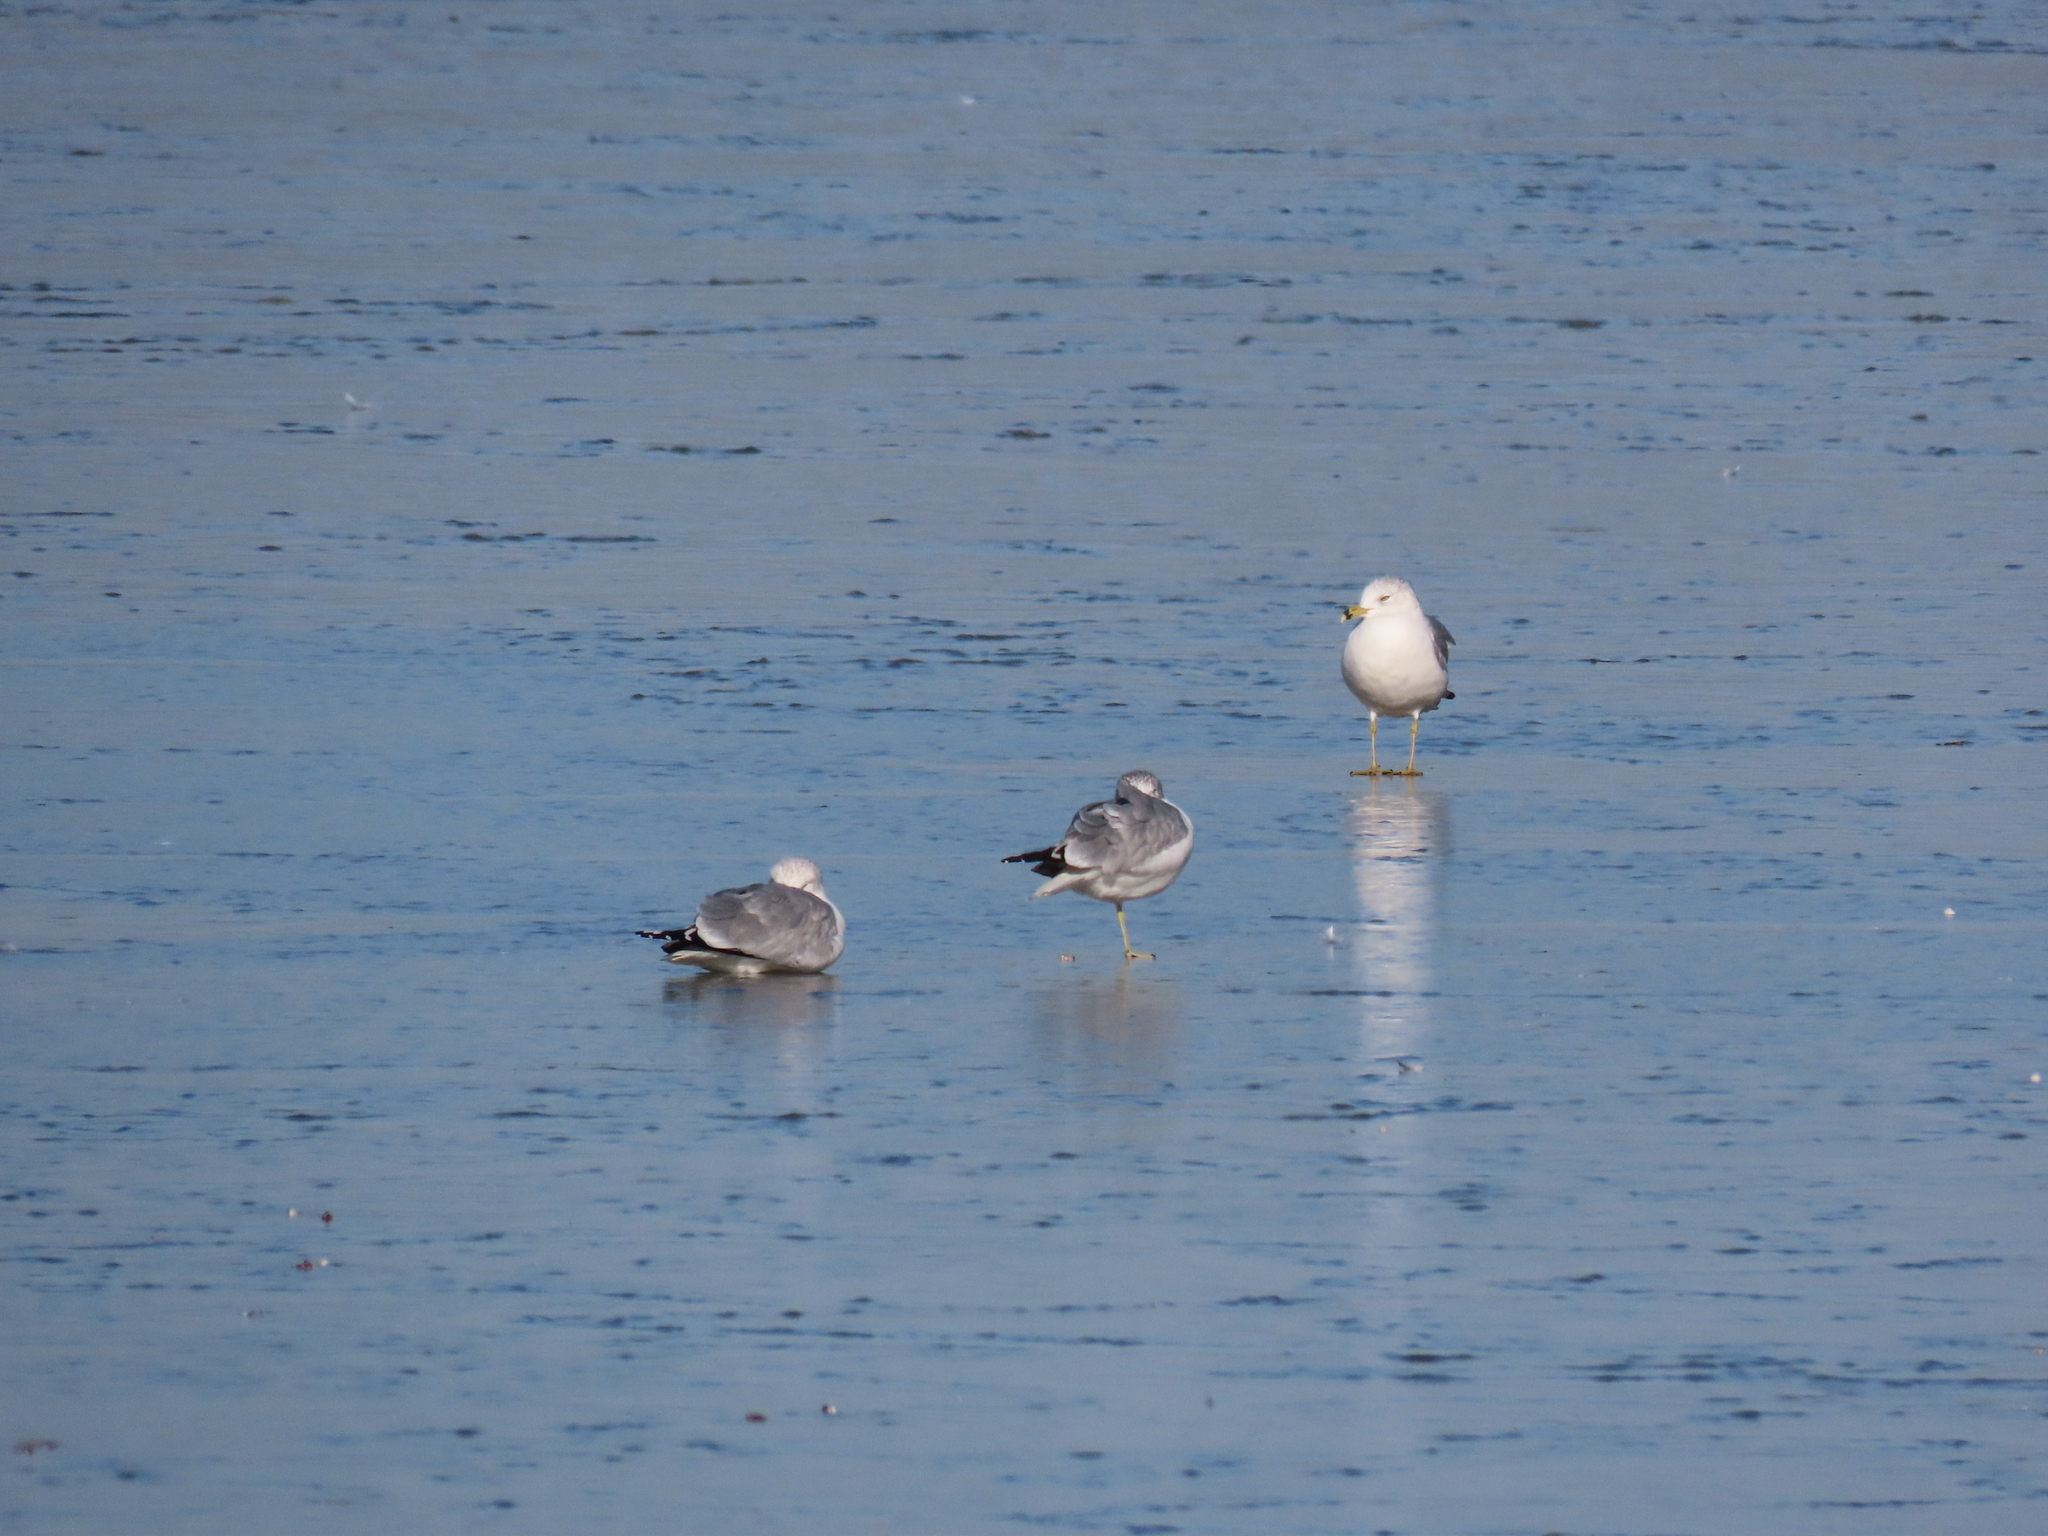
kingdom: Animalia
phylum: Chordata
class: Aves
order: Charadriiformes
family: Laridae
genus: Larus
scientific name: Larus delawarensis
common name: Ring-billed gull
